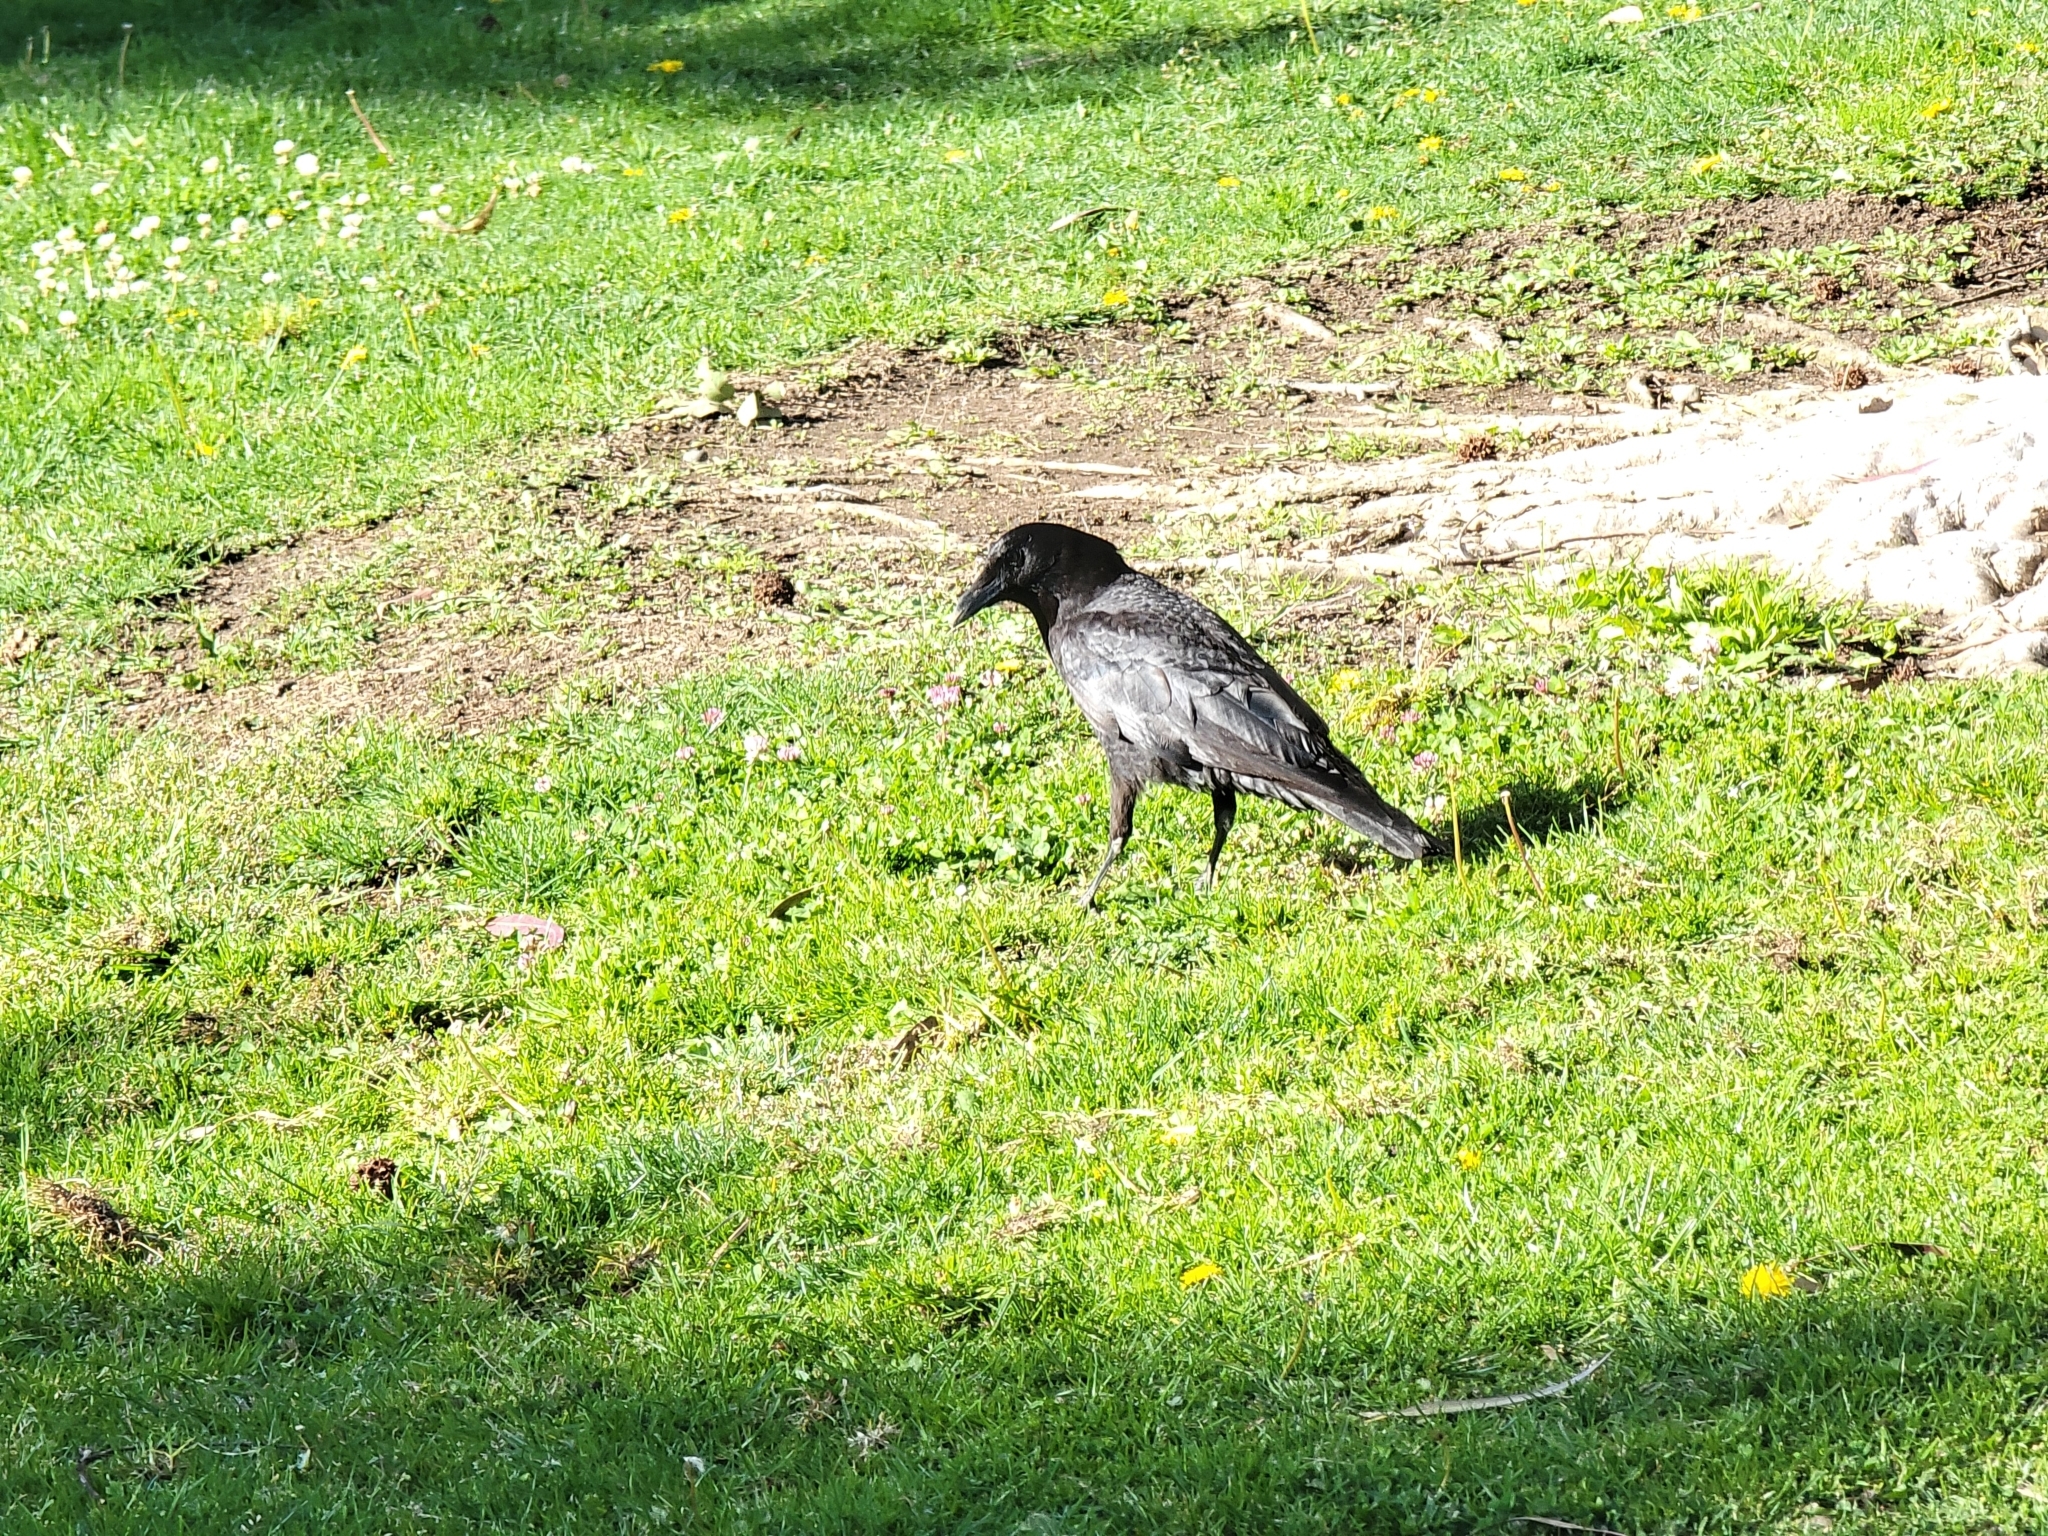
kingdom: Animalia
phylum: Chordata
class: Aves
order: Passeriformes
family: Corvidae
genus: Corvus
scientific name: Corvus brachyrhynchos
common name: American crow
